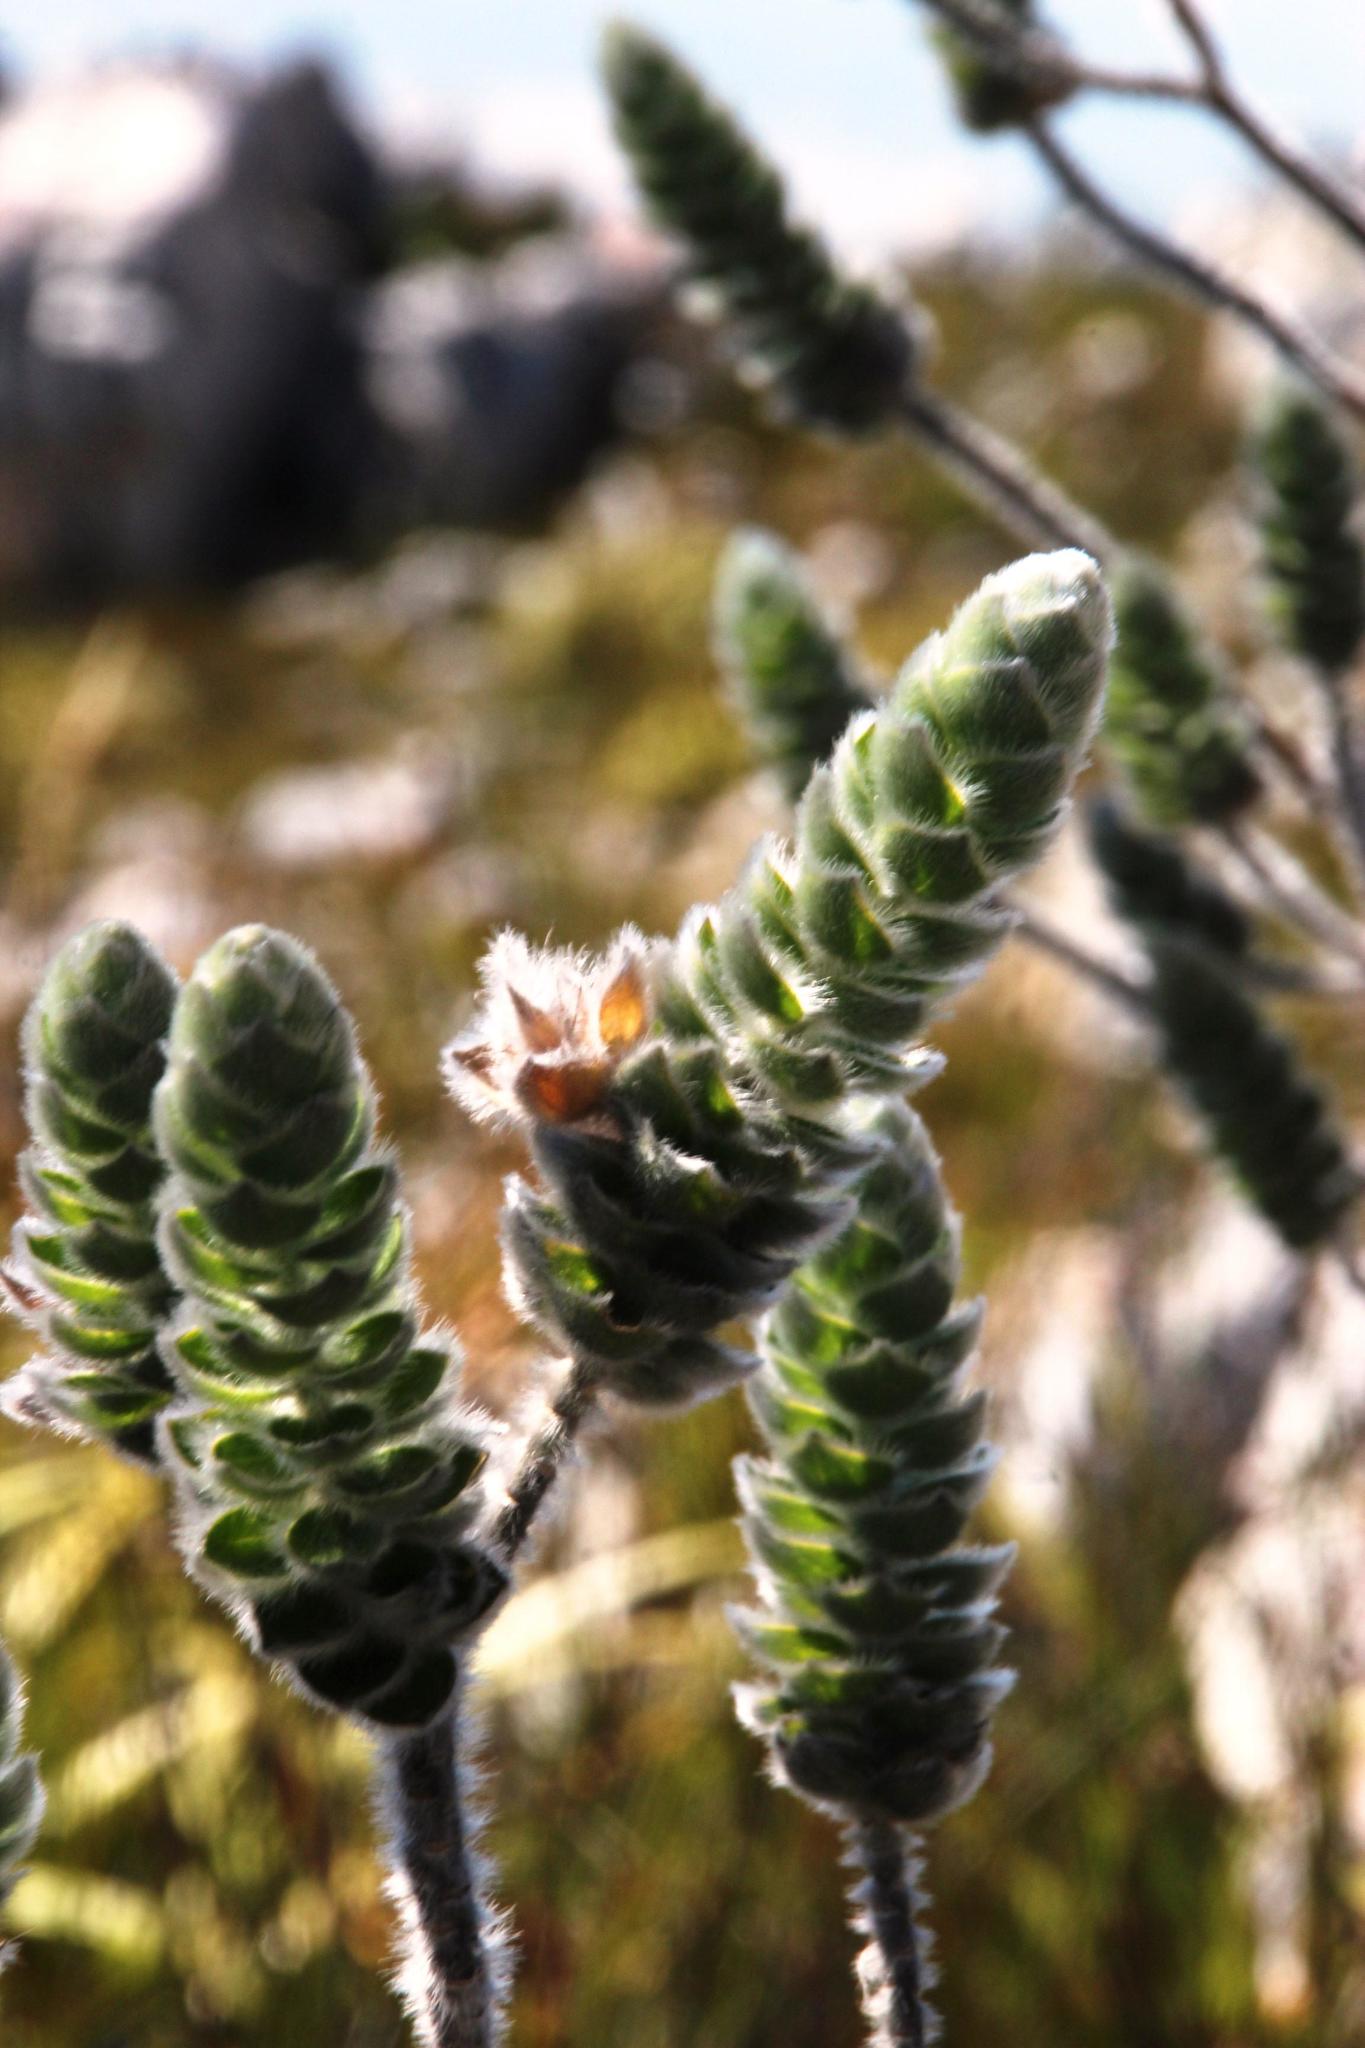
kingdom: Plantae
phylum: Tracheophyta
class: Magnoliopsida
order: Fabales
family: Fabaceae
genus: Liparia
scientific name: Liparia vestita
